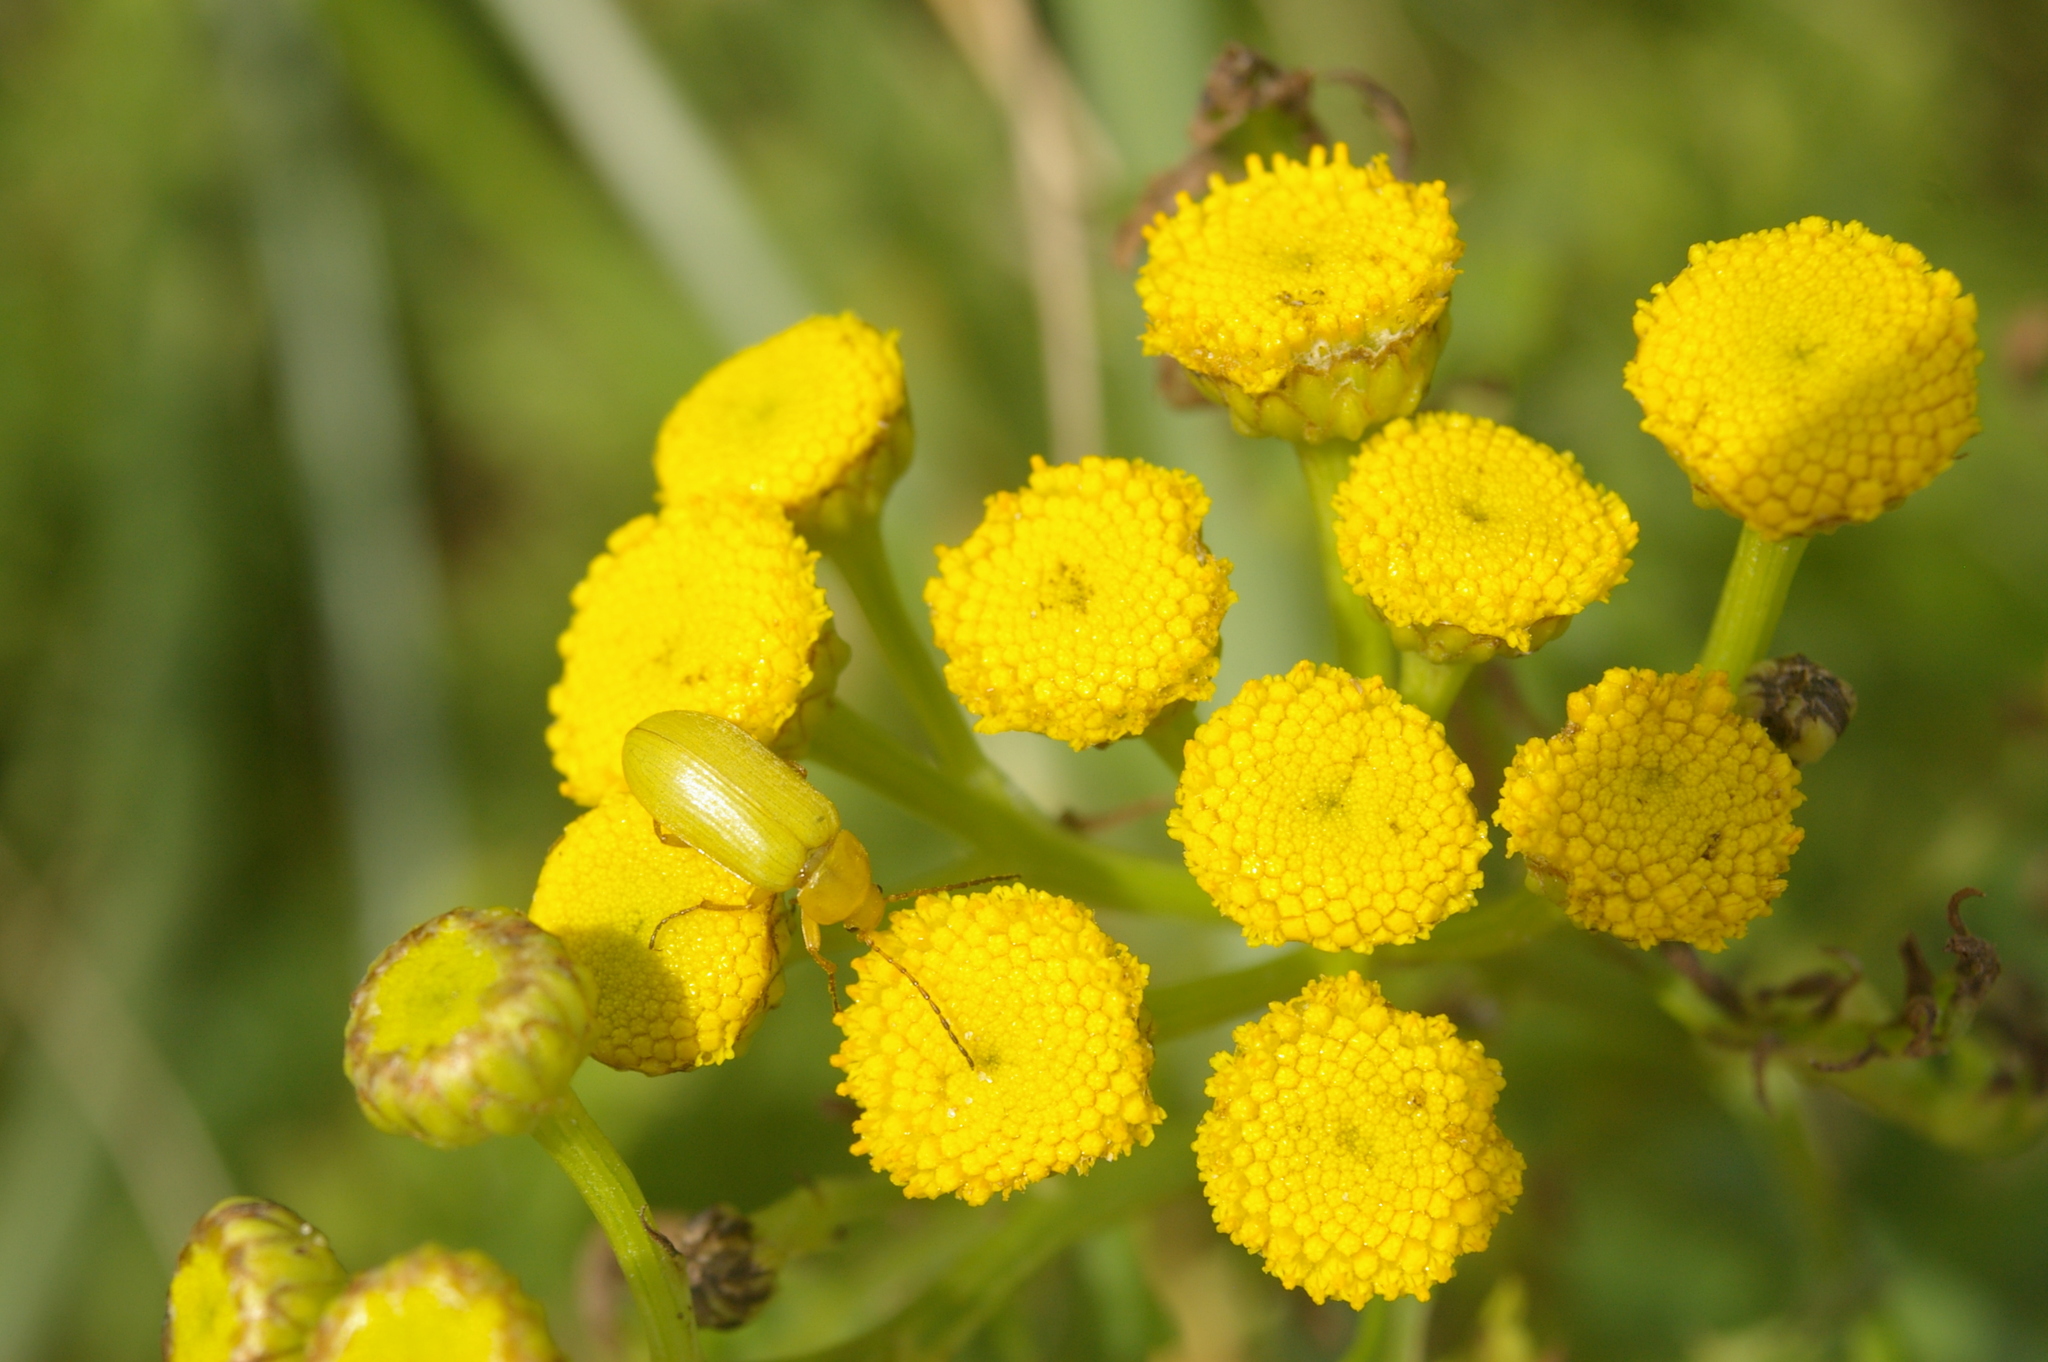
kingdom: Animalia
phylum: Arthropoda
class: Insecta
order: Coleoptera
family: Tenebrionidae
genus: Cteniopus
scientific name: Cteniopus sulphureus
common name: Sulphur beetle
